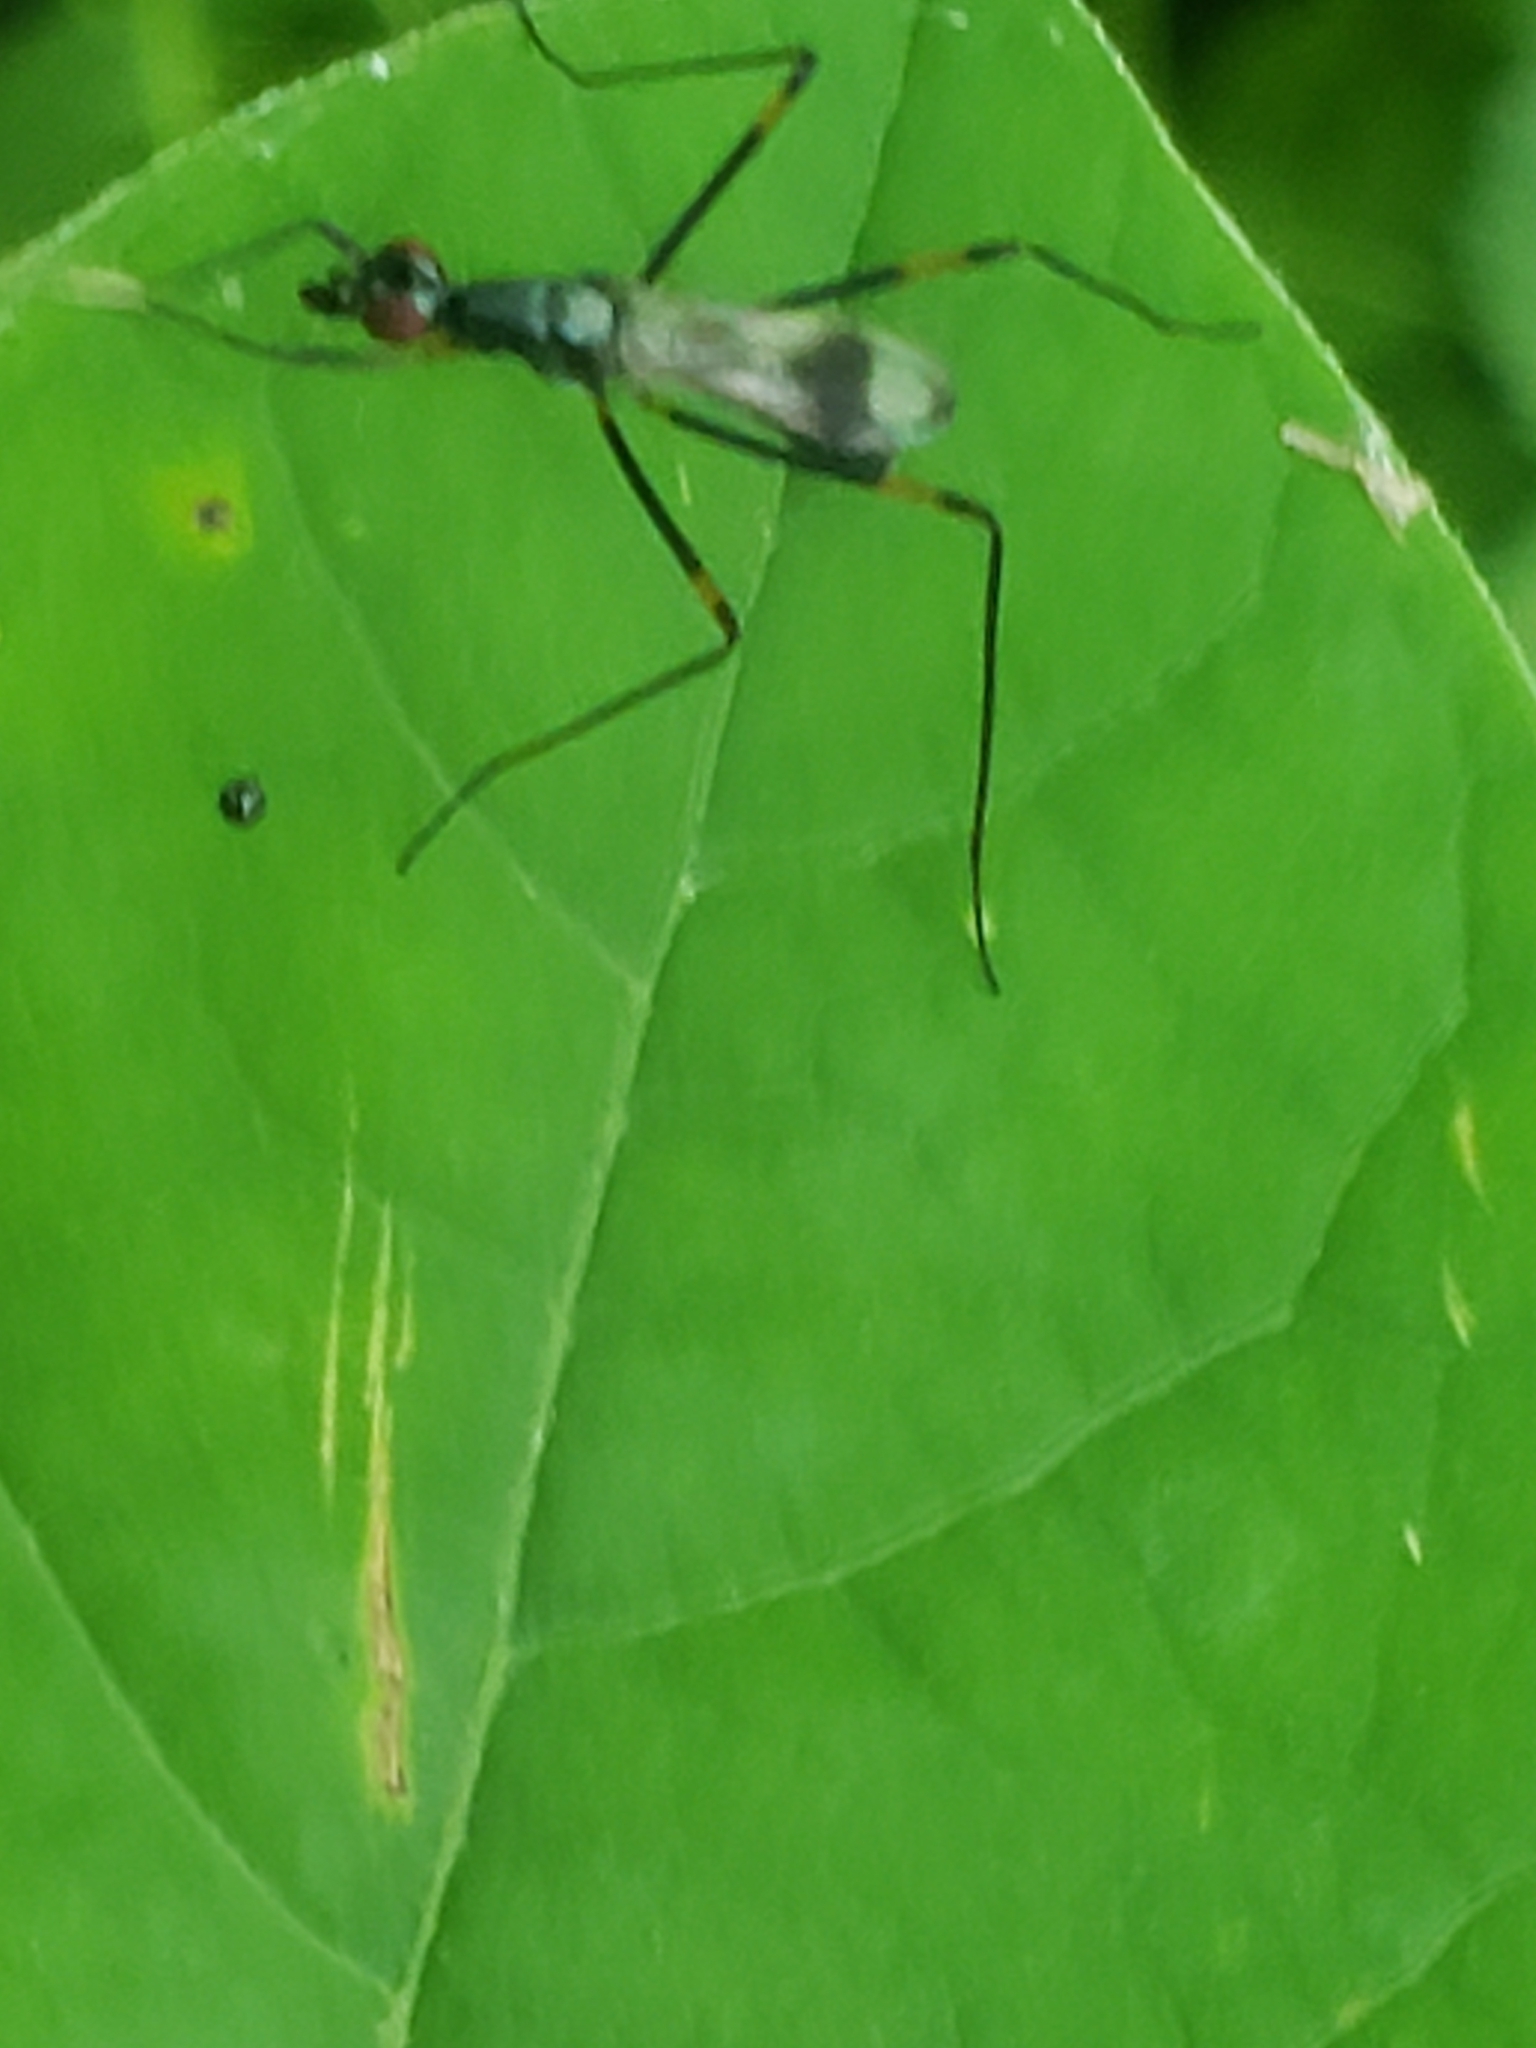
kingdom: Animalia
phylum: Arthropoda
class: Insecta
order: Diptera
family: Micropezidae
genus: Rainieria
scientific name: Rainieria antennaepes
